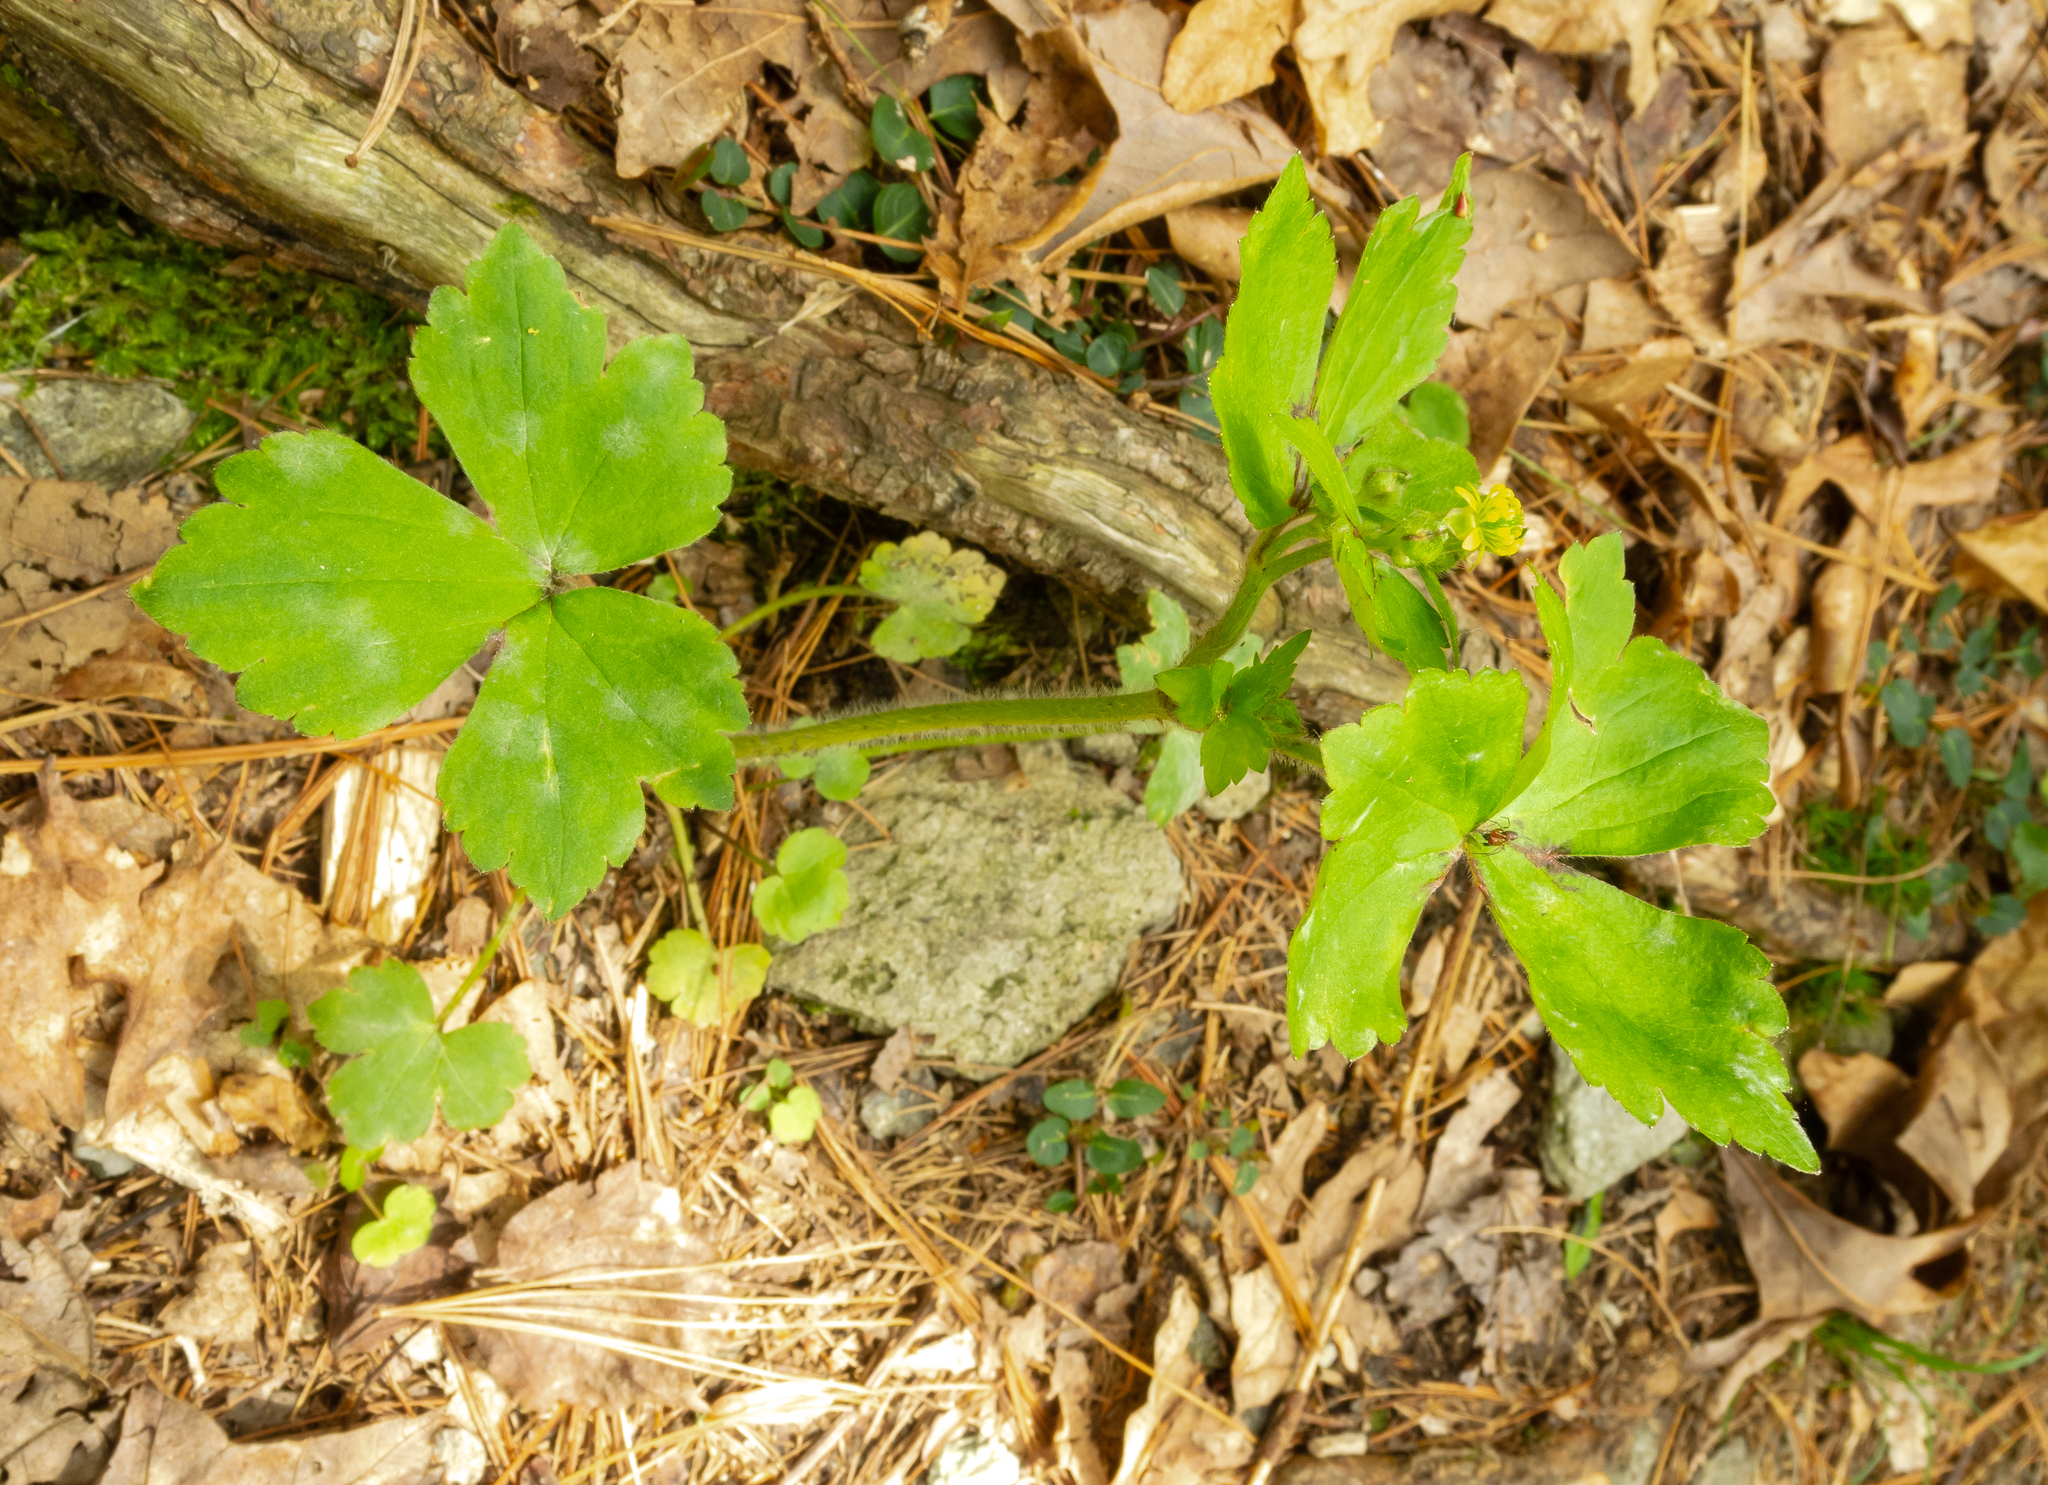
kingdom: Plantae
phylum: Tracheophyta
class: Magnoliopsida
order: Ranunculales
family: Ranunculaceae
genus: Ranunculus
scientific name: Ranunculus recurvatus
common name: Blisterwort
